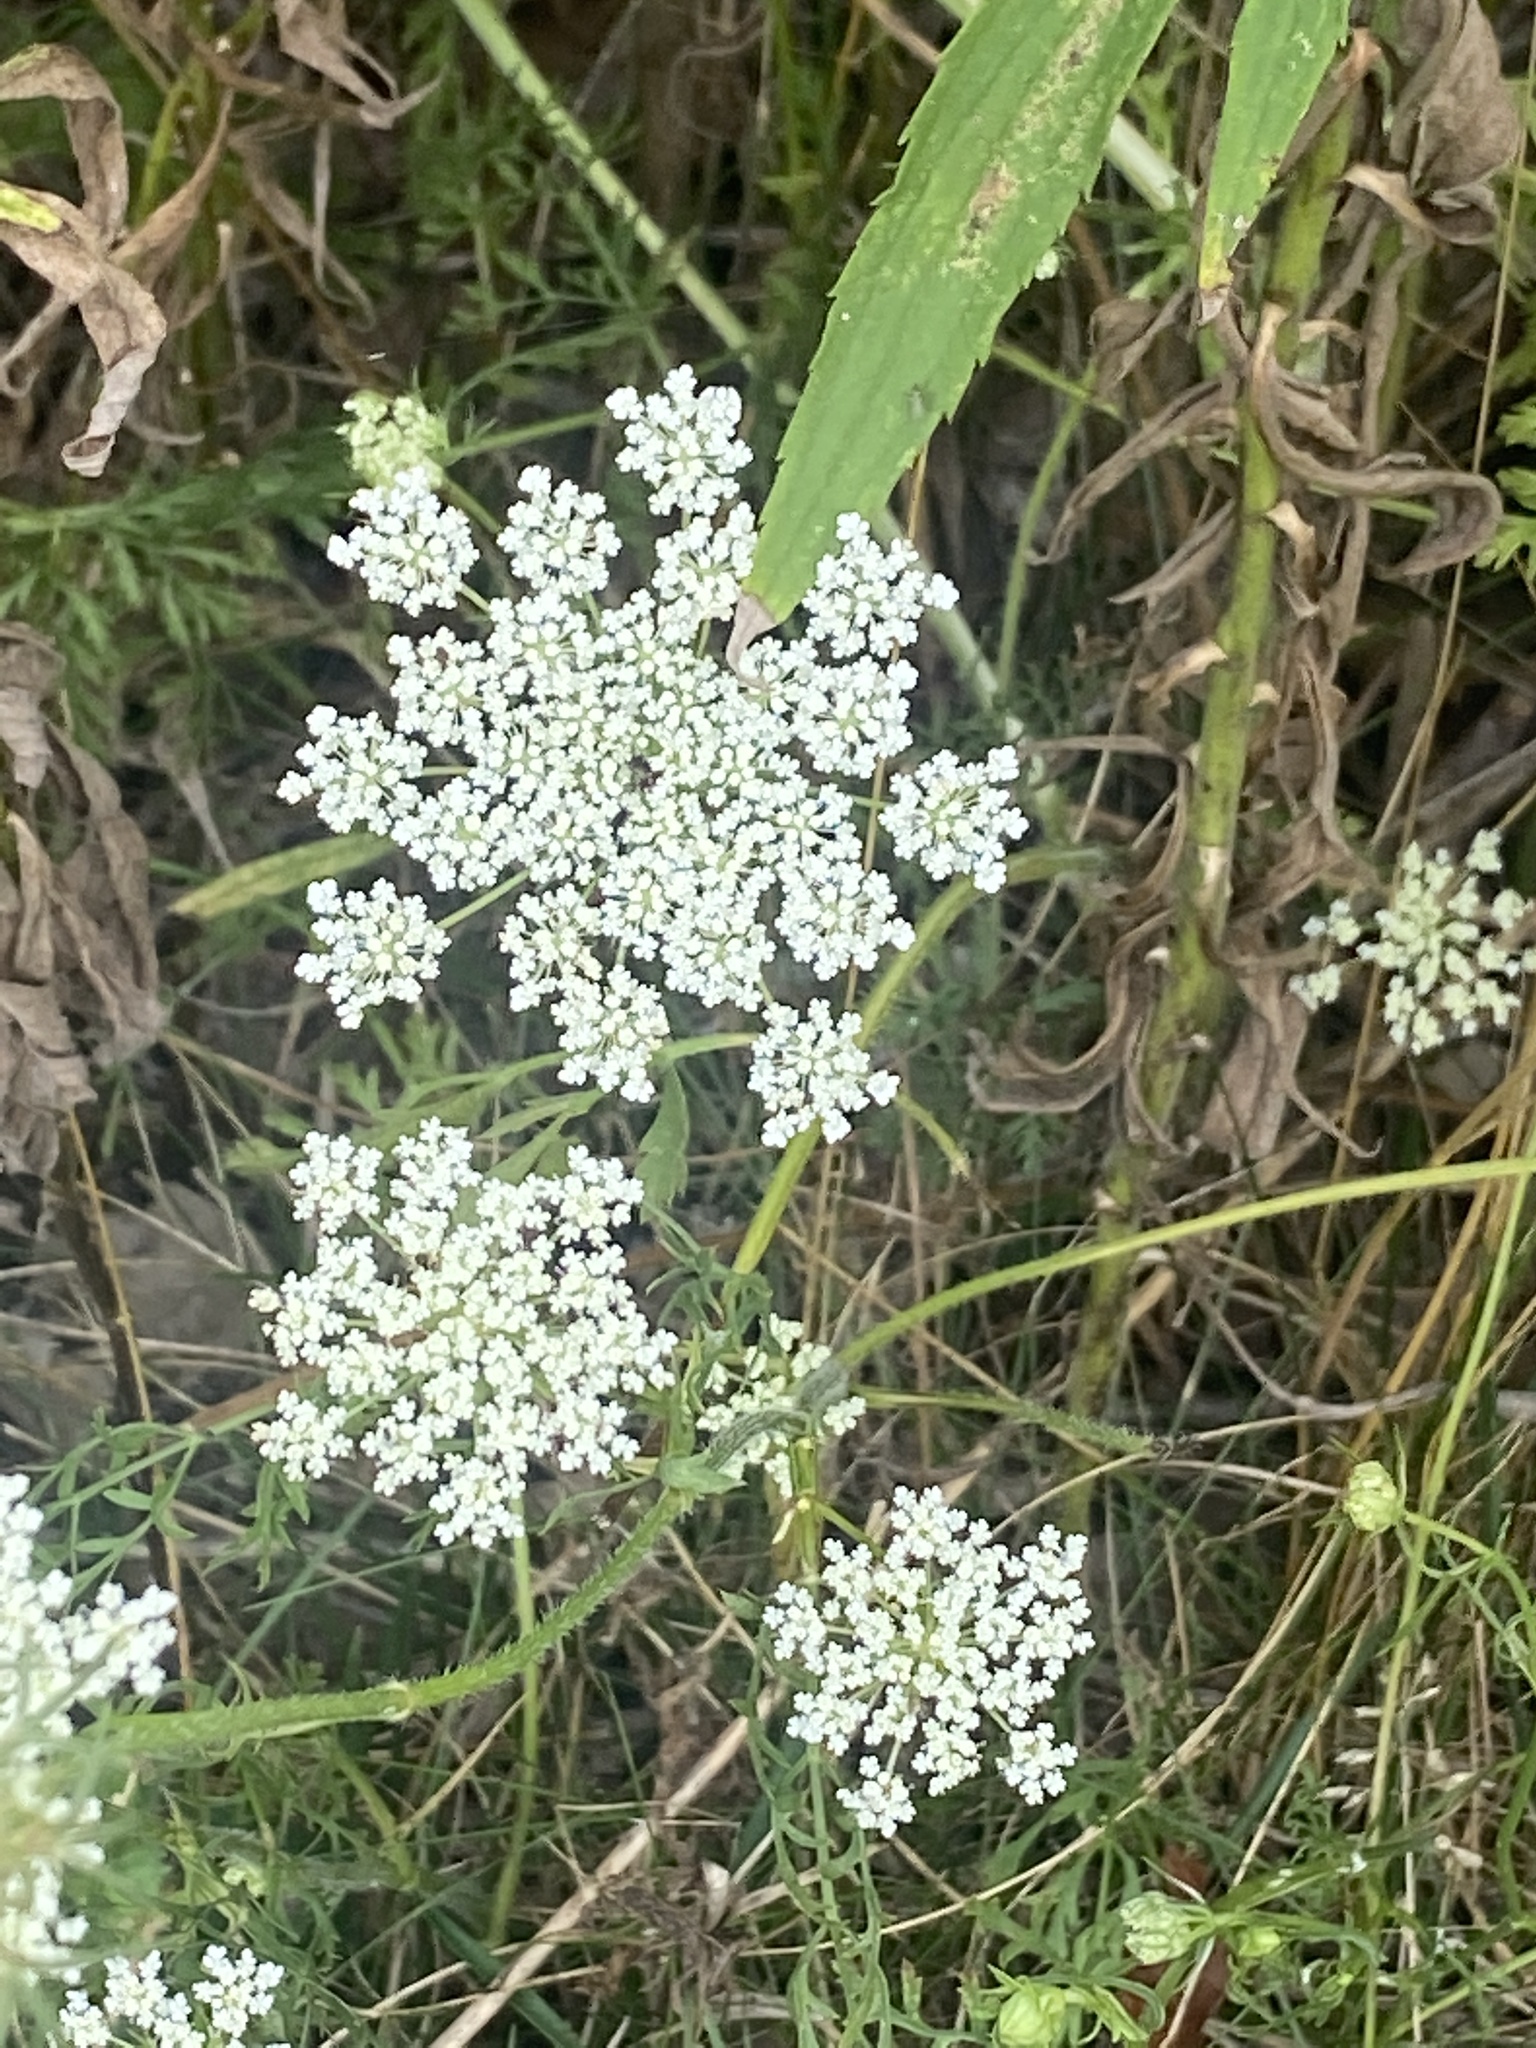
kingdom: Plantae
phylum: Tracheophyta
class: Magnoliopsida
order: Apiales
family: Apiaceae
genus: Daucus
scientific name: Daucus carota
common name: Wild carrot
